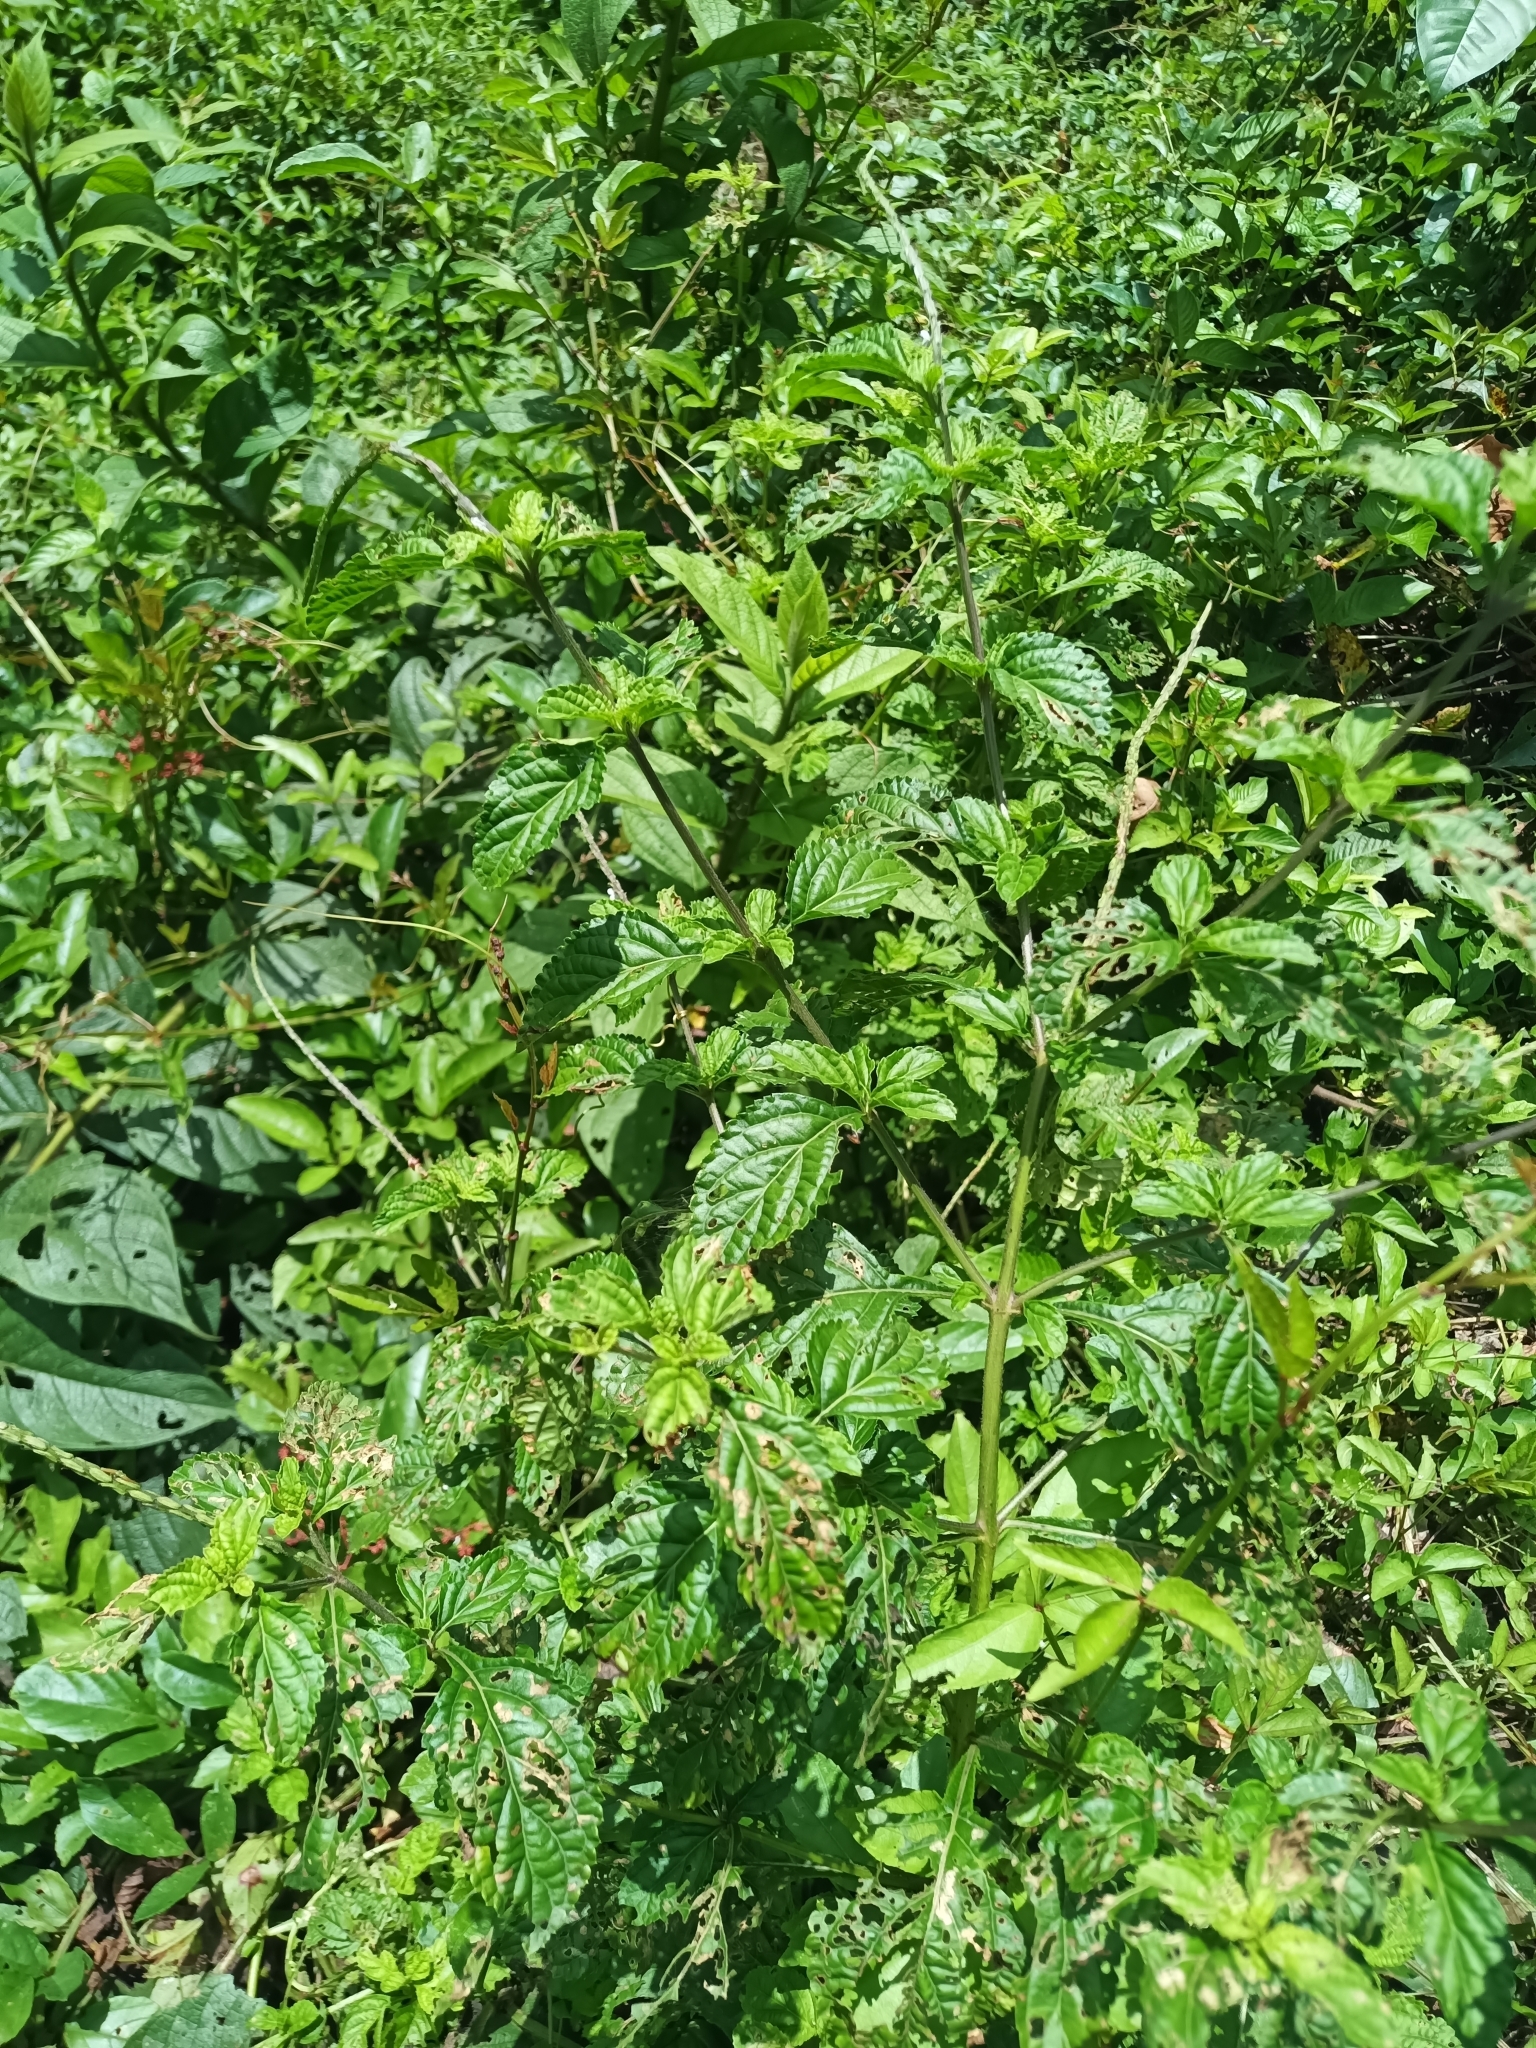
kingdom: Plantae
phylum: Tracheophyta
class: Magnoliopsida
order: Lamiales
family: Verbenaceae
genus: Stachytarpheta
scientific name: Stachytarpheta cayennensis
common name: Cayenne porterweed
